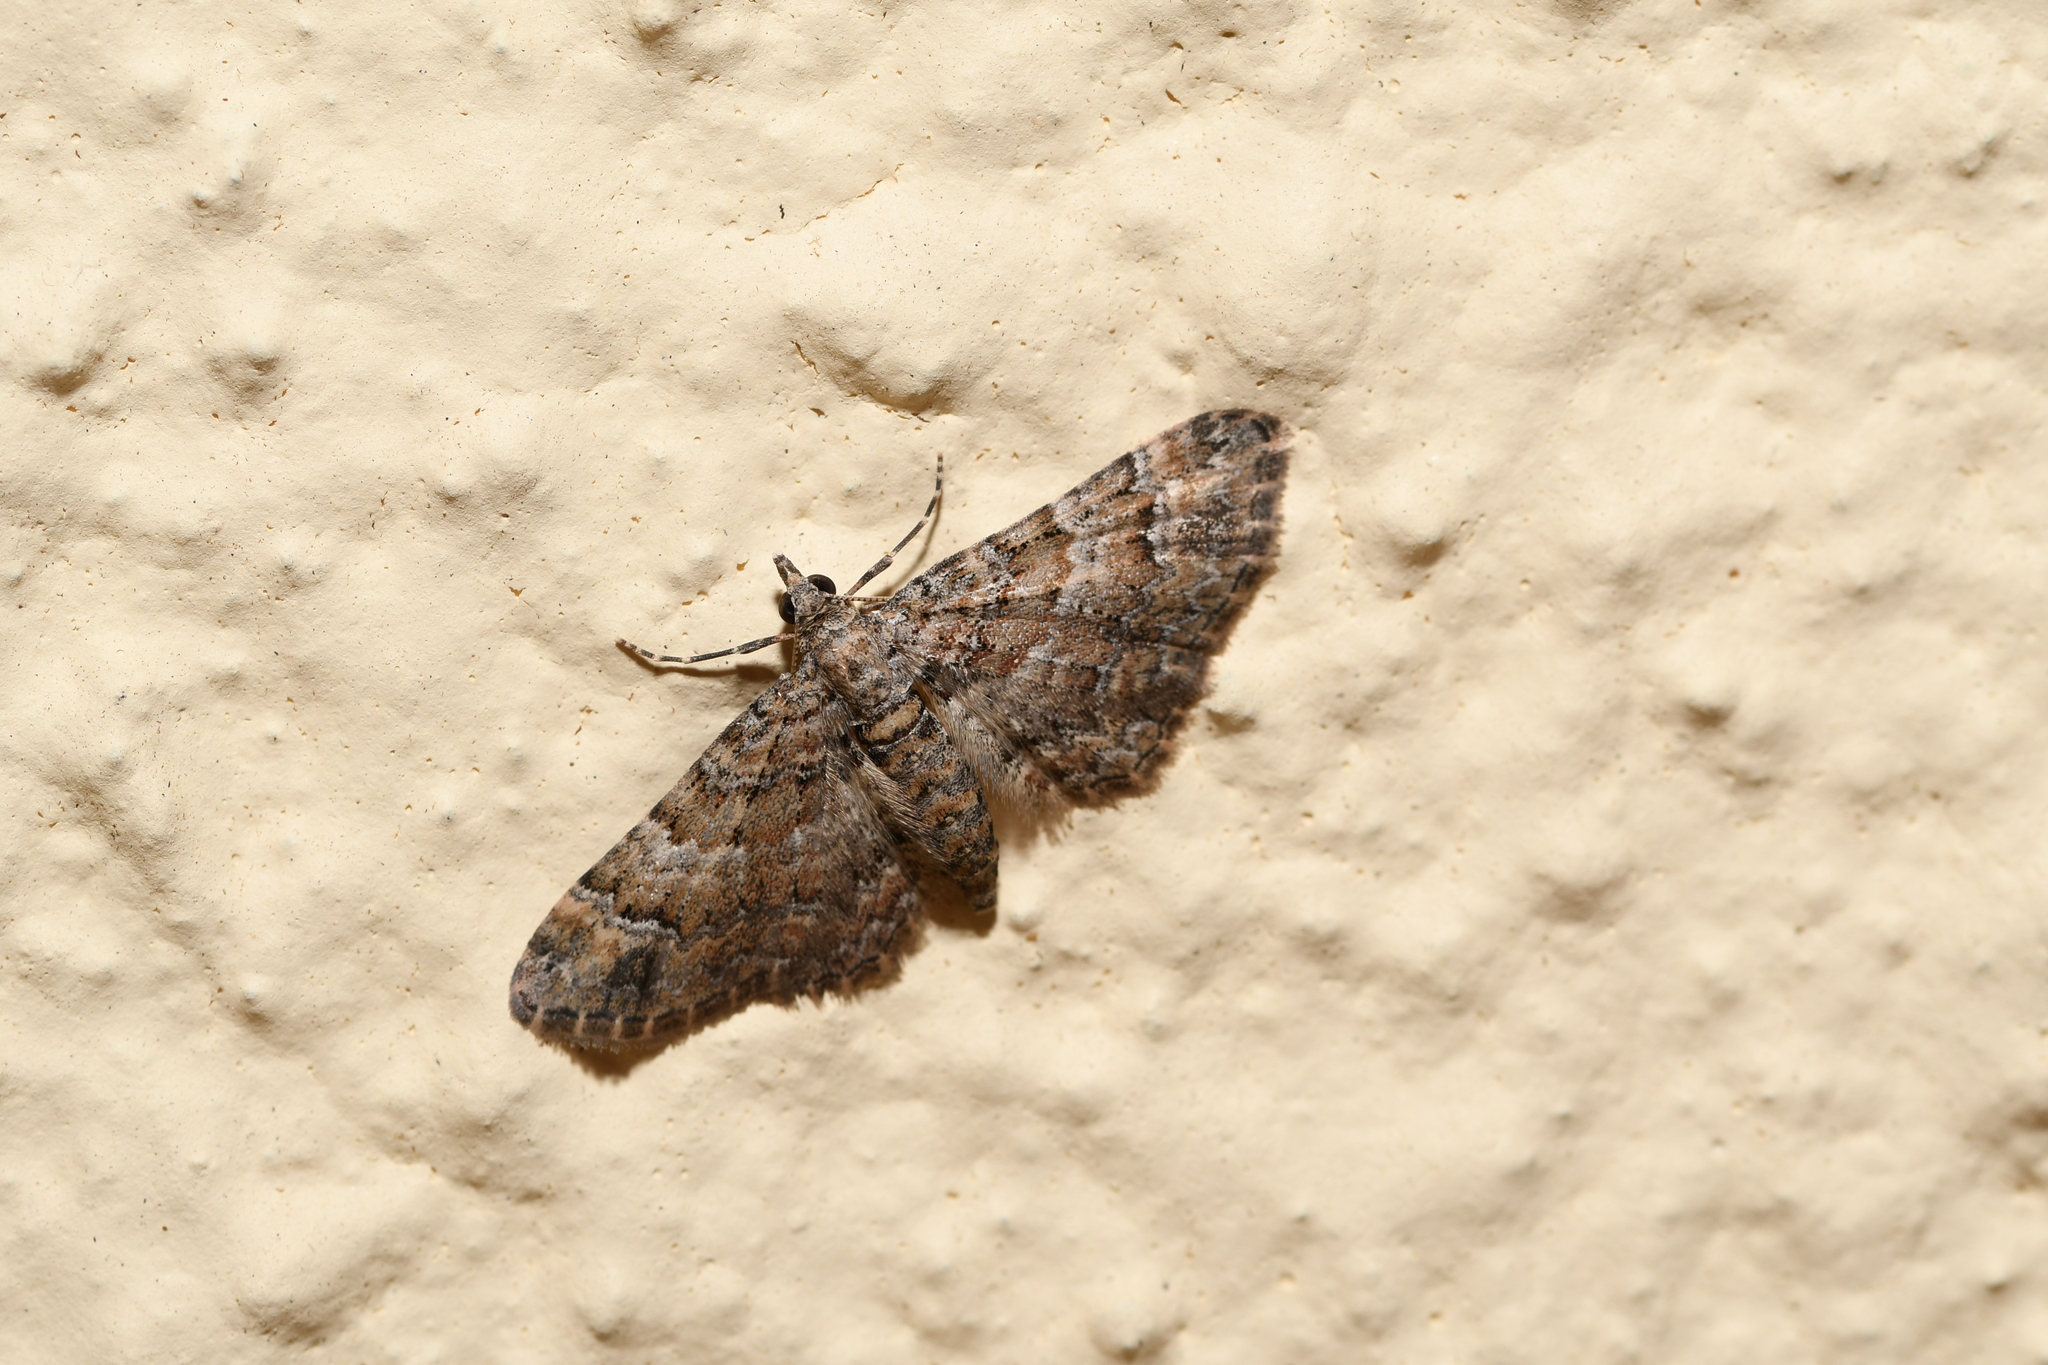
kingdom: Animalia
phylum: Arthropoda
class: Insecta
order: Lepidoptera
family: Geometridae
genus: Gymnoscelis
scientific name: Gymnoscelis rufifasciata
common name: Double-striped pug
